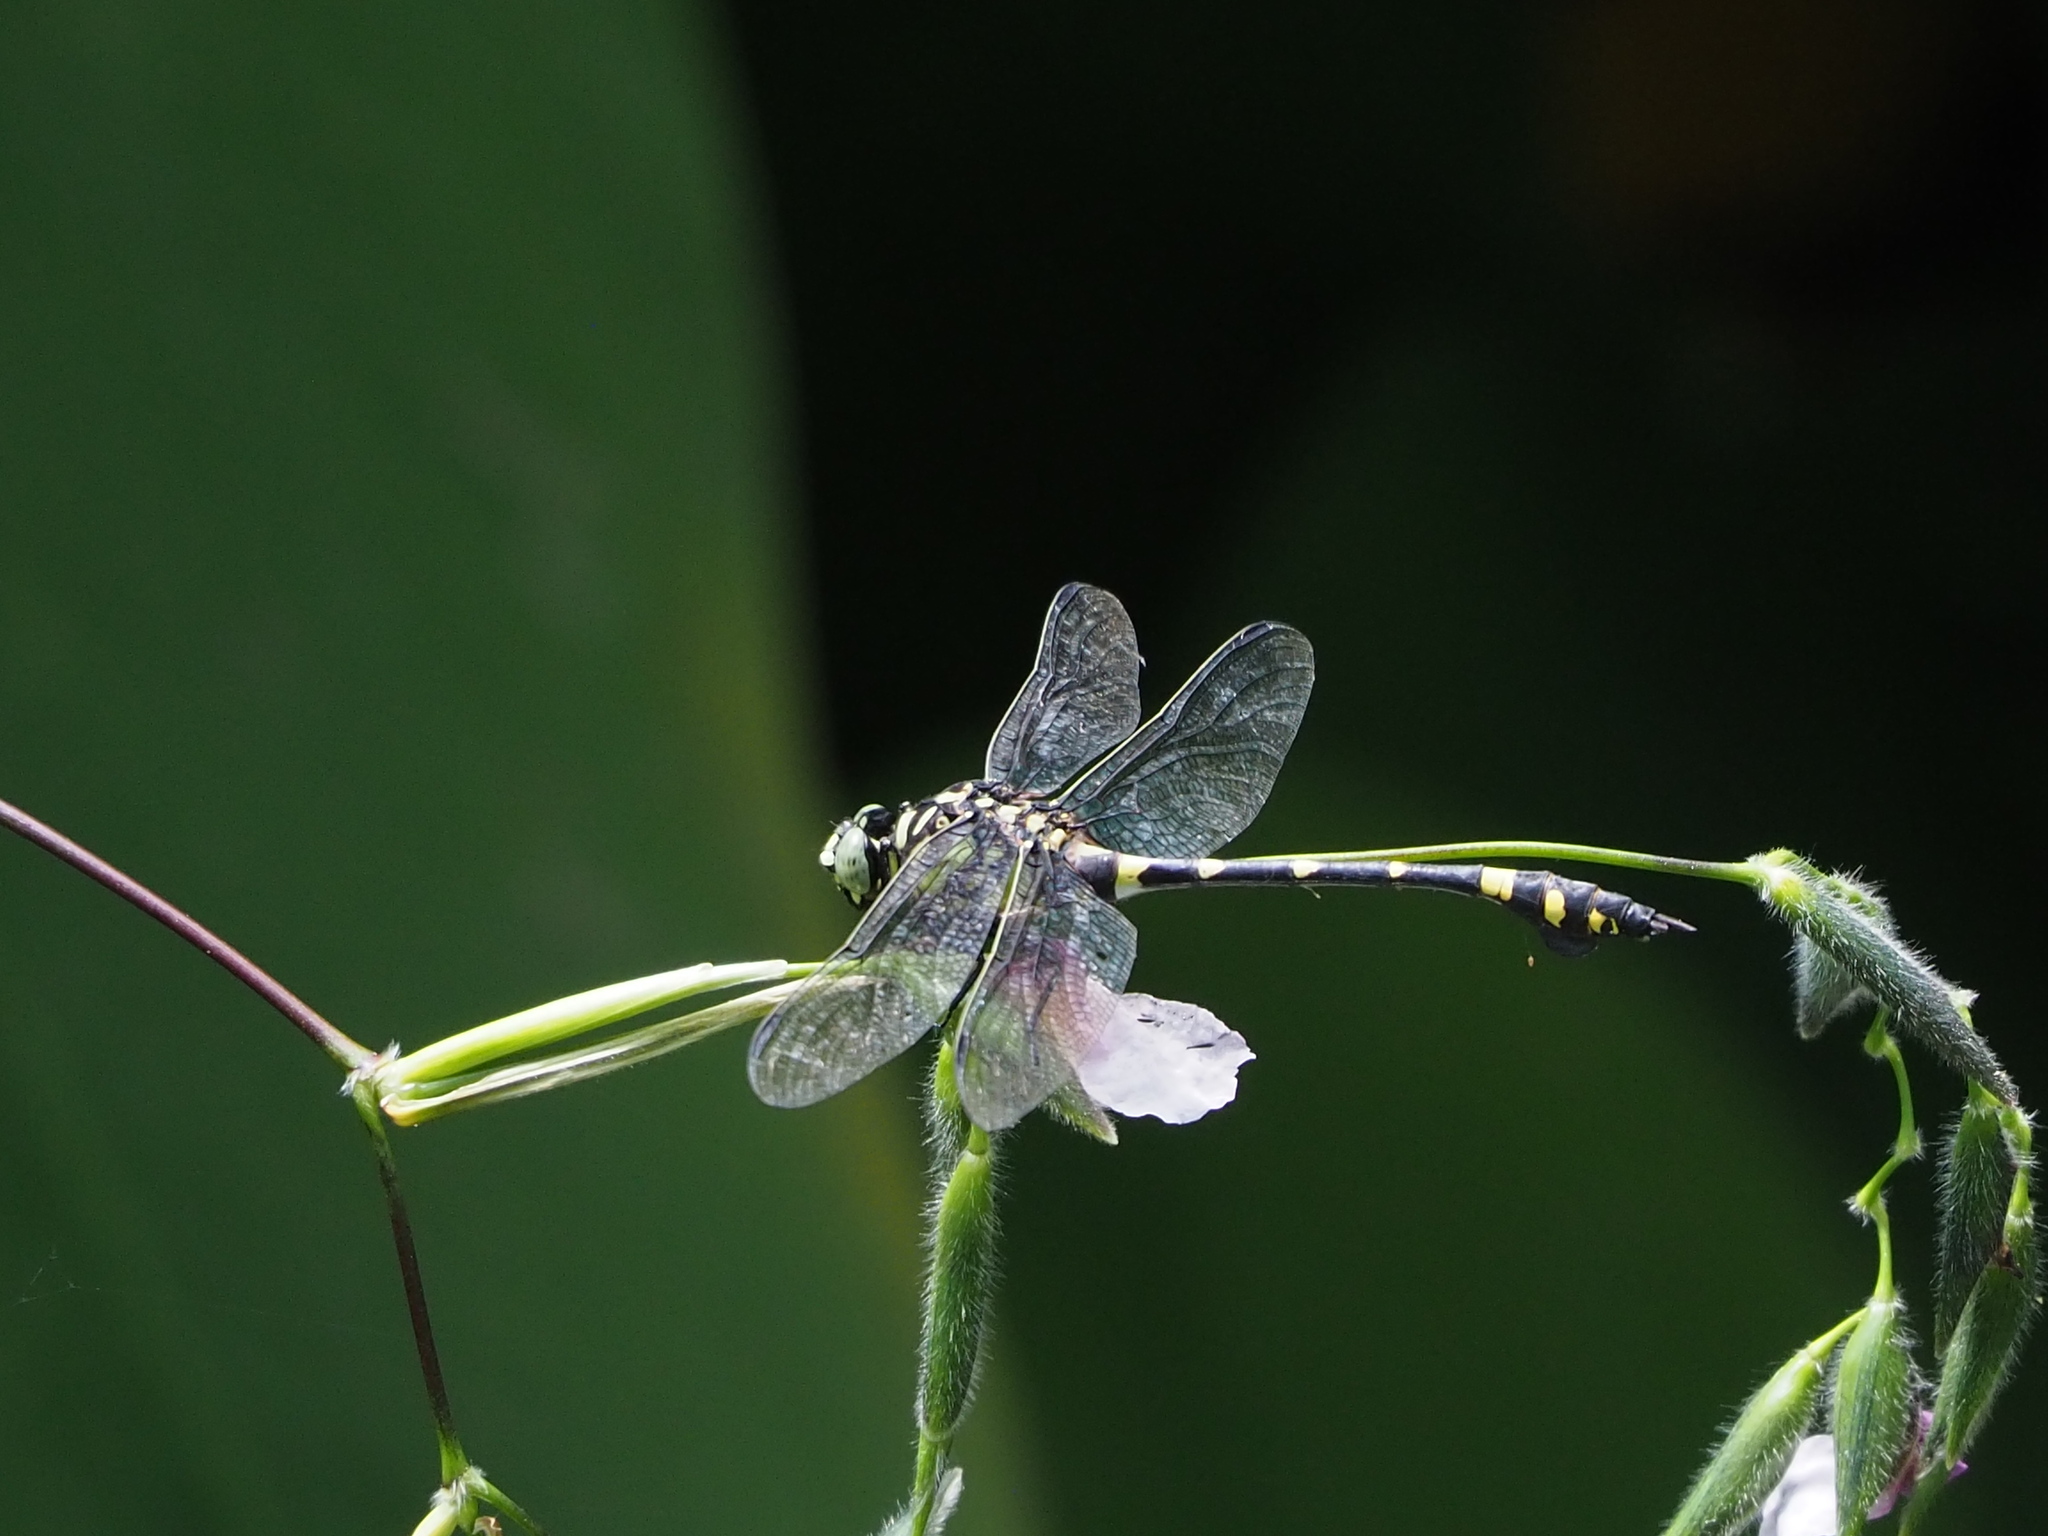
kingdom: Animalia
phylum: Arthropoda
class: Insecta
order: Odonata
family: Gomphidae
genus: Ictinogomphus
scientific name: Ictinogomphus rapax
